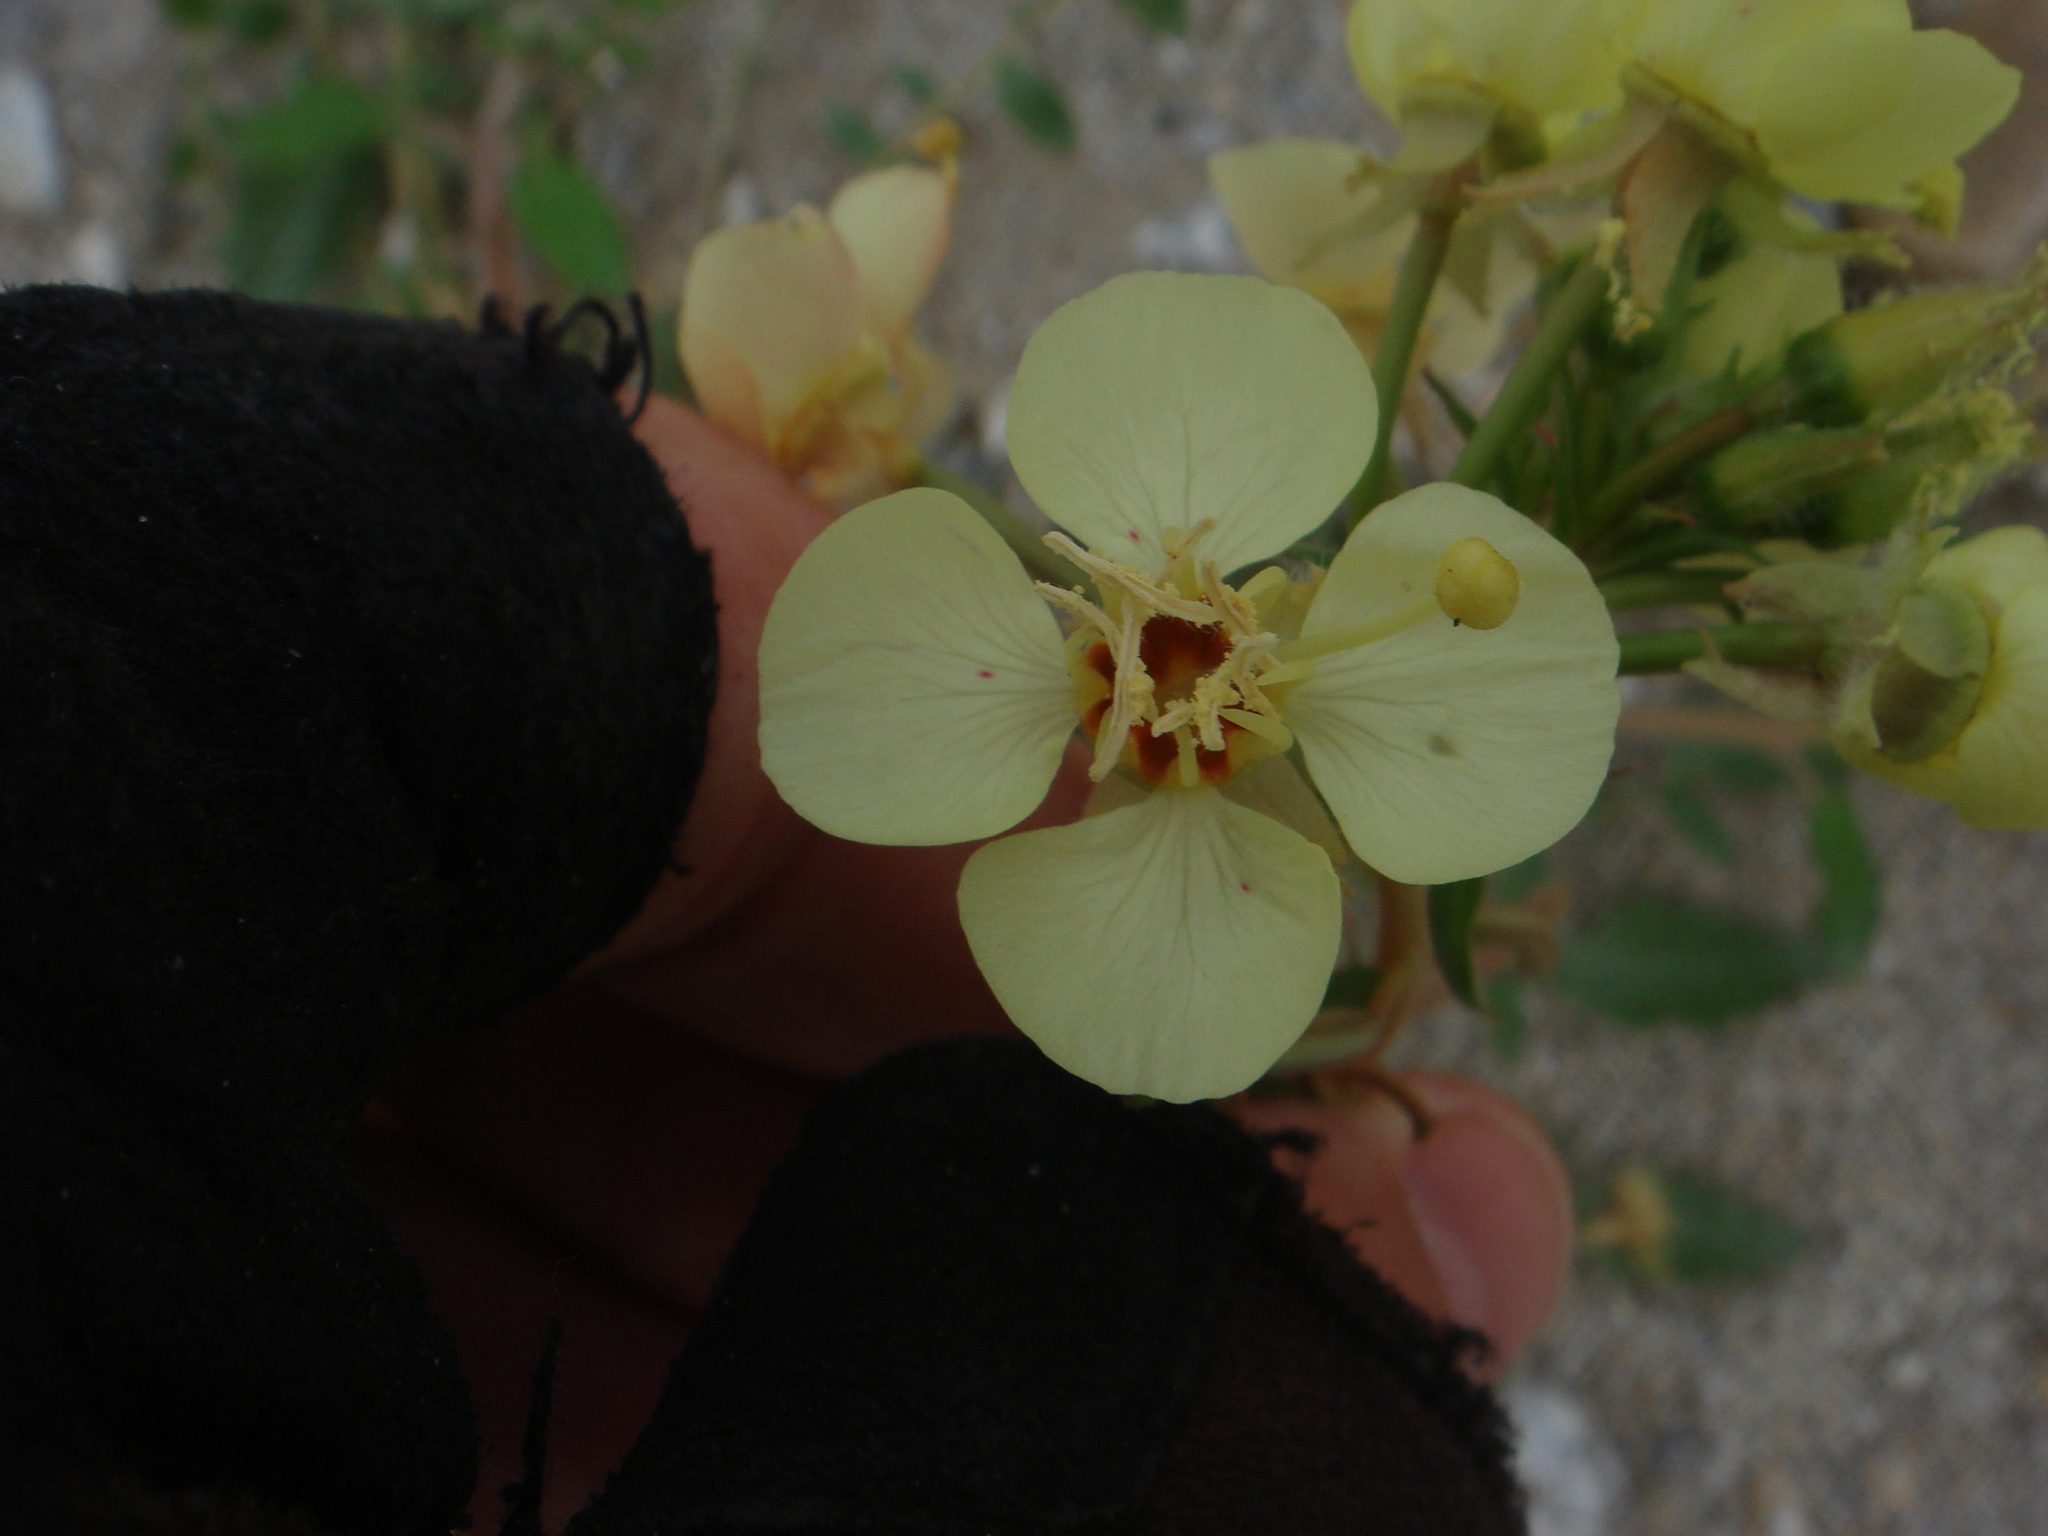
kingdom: Plantae
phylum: Tracheophyta
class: Magnoliopsida
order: Myrtales
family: Onagraceae
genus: Chylismia
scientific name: Chylismia claviformis
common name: Browneyes
